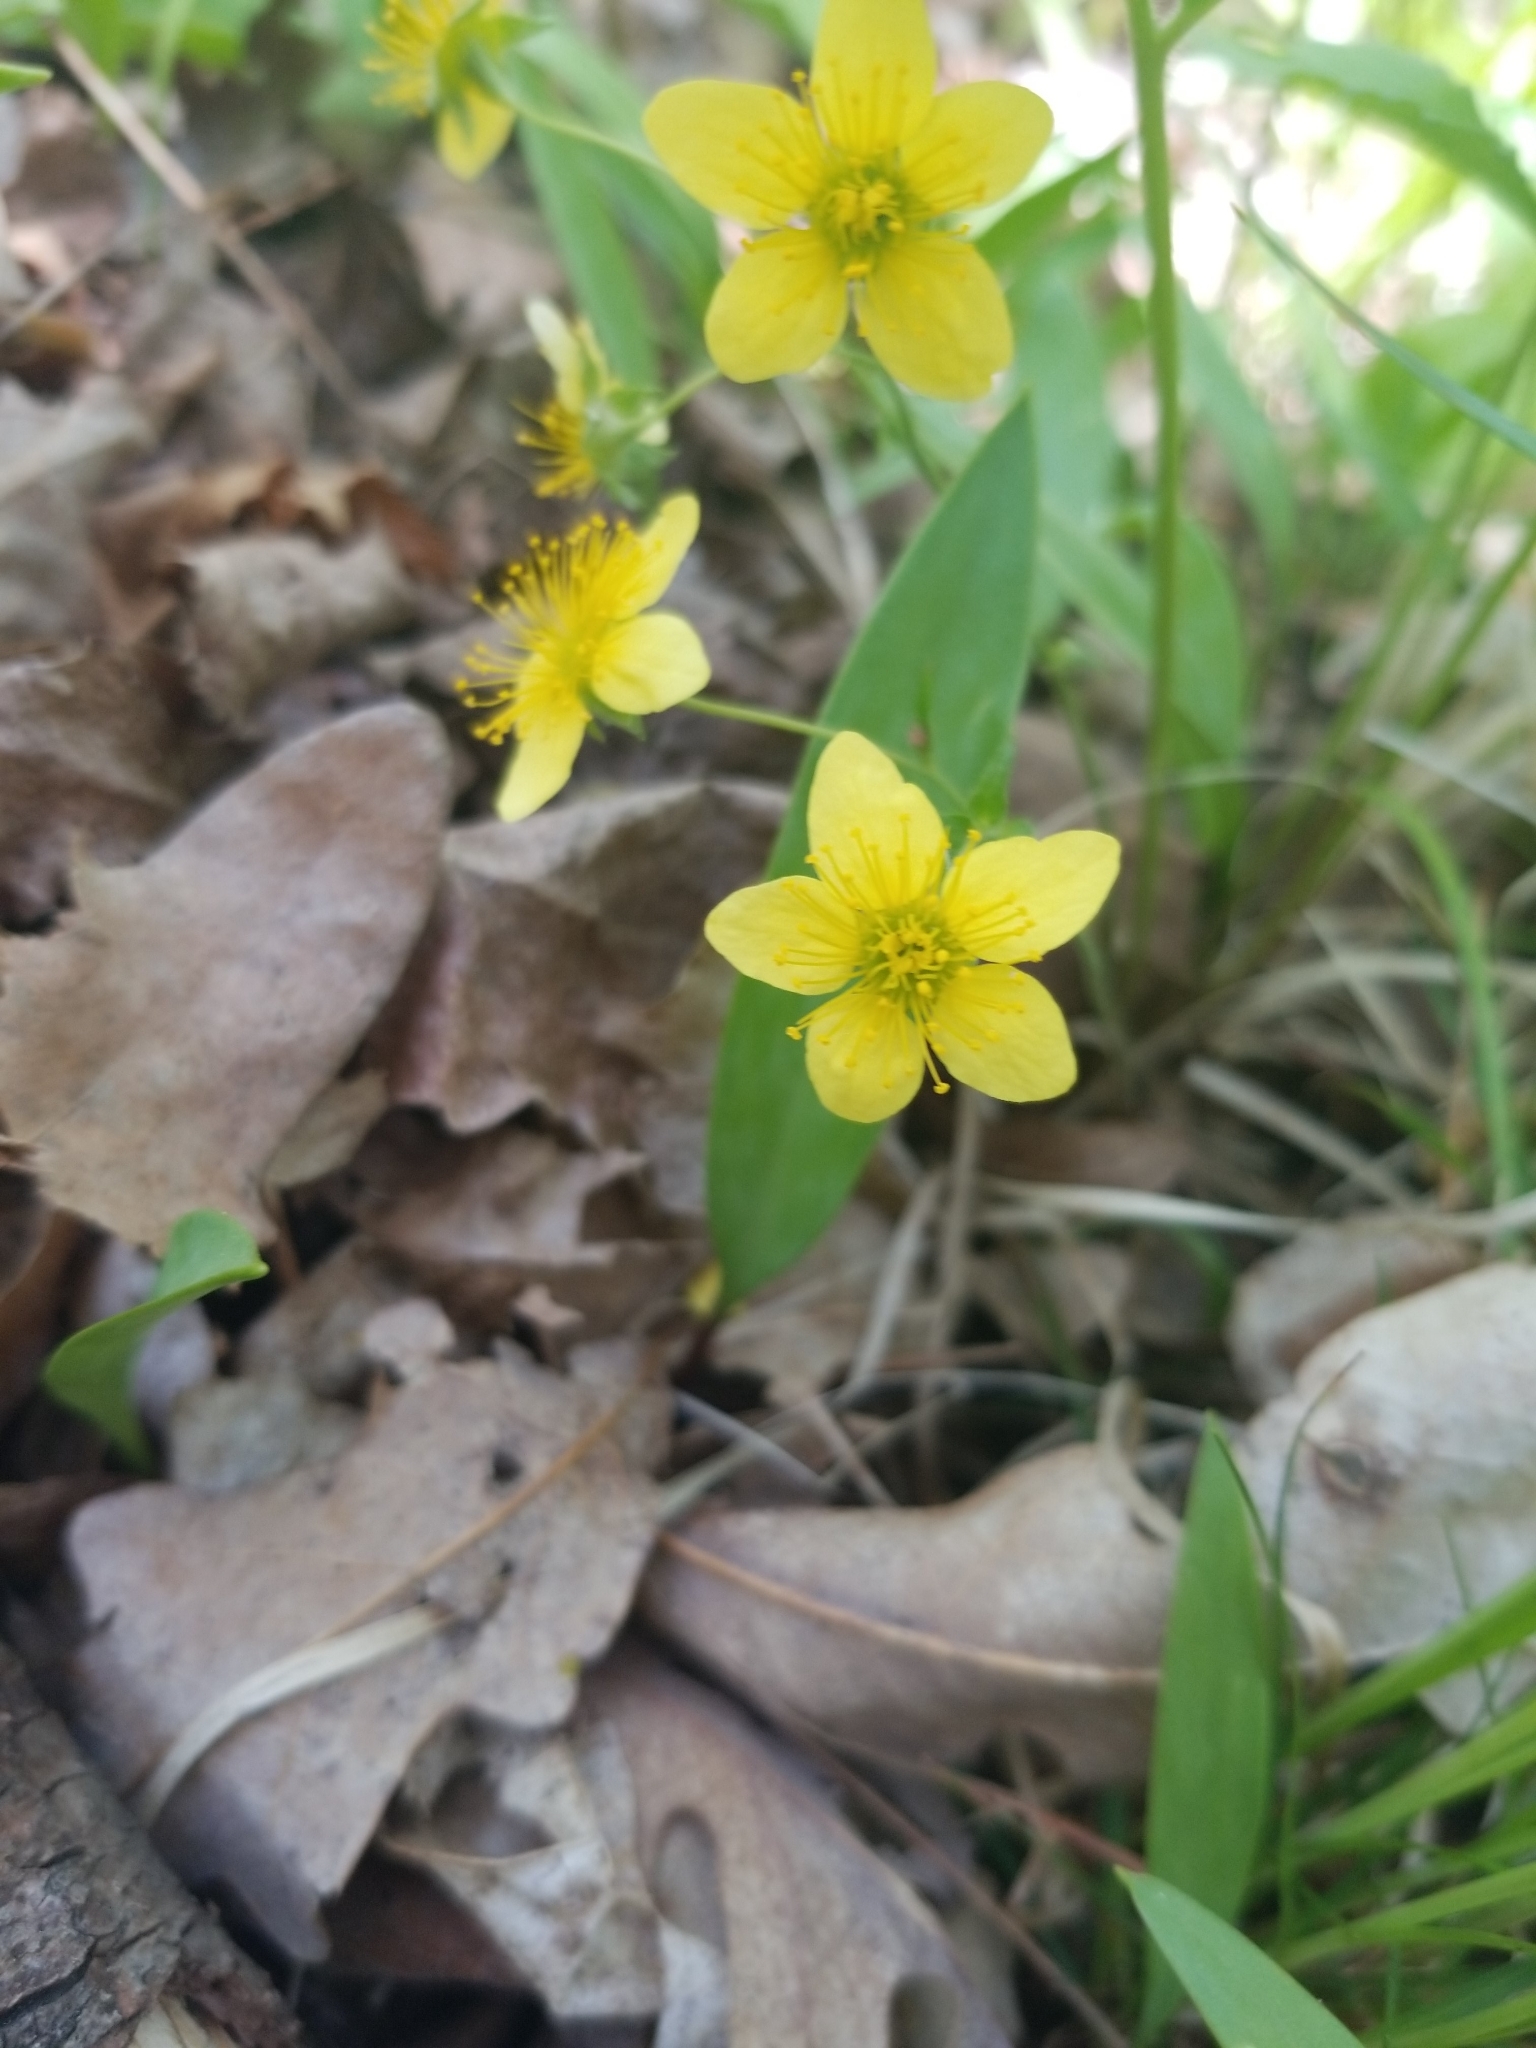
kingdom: Plantae
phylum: Tracheophyta
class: Magnoliopsida
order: Rosales
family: Rosaceae
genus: Geum
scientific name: Geum fragarioides
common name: Appalachian barren strawberry
